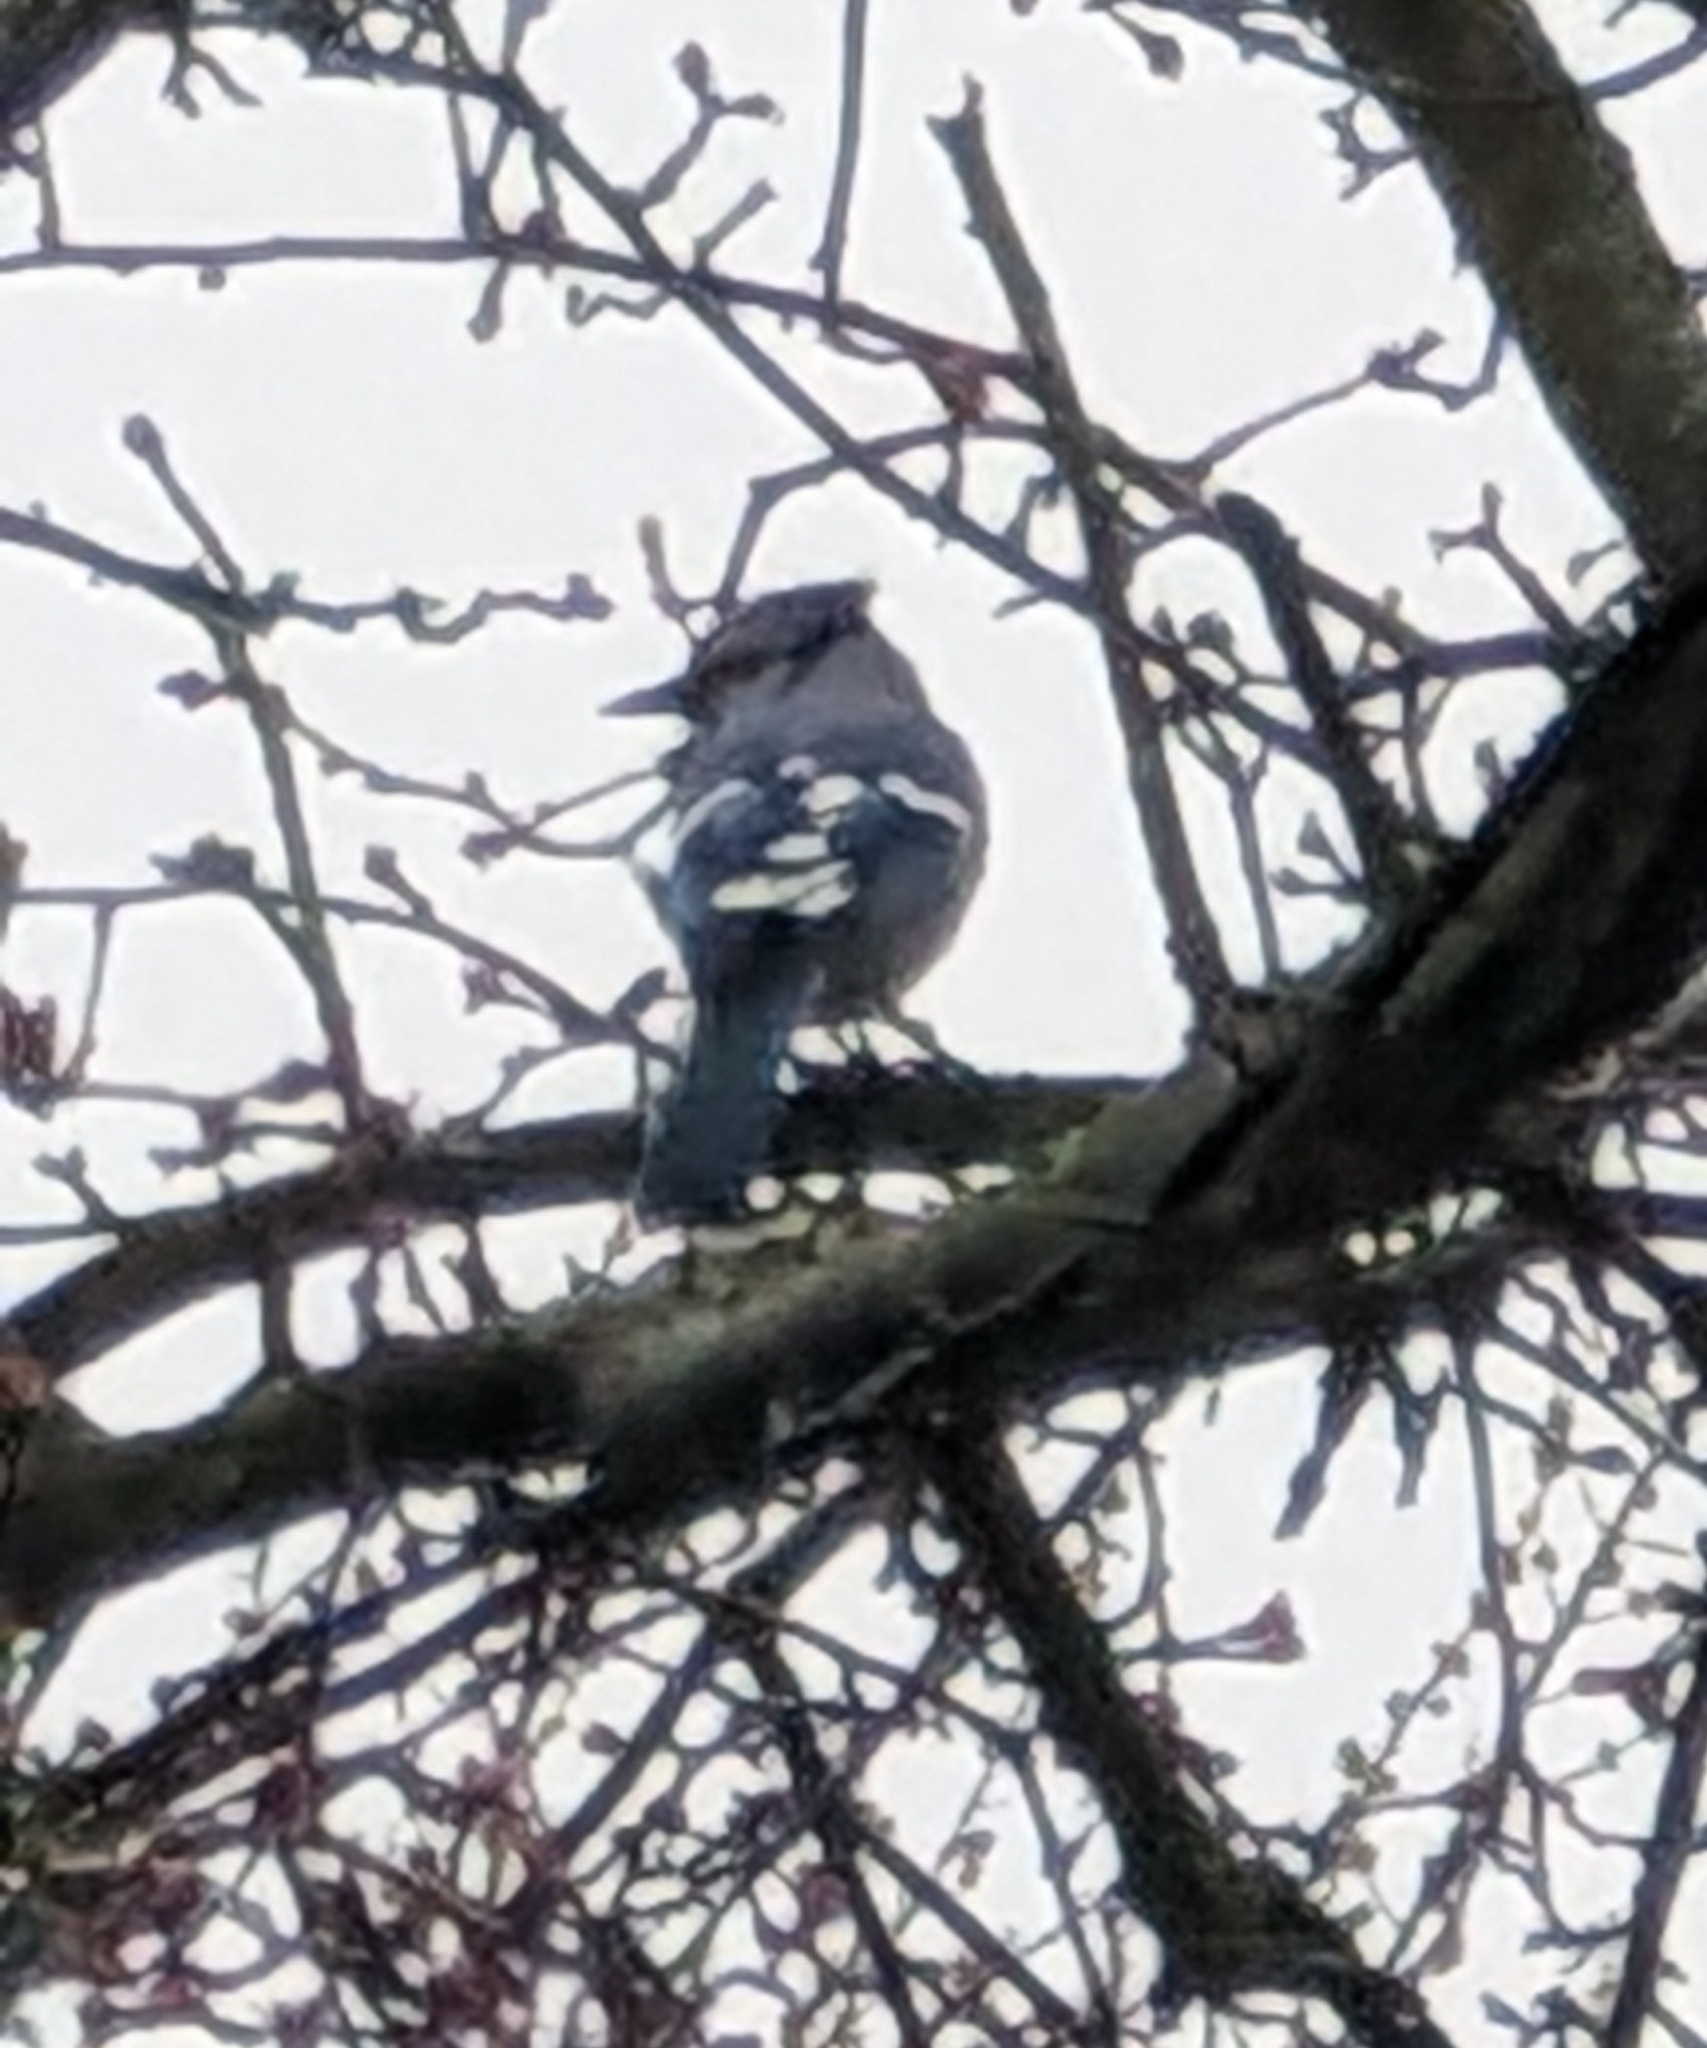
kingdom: Animalia
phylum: Chordata
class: Aves
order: Passeriformes
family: Corvidae
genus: Cyanocitta
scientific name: Cyanocitta cristata
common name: Blue jay
